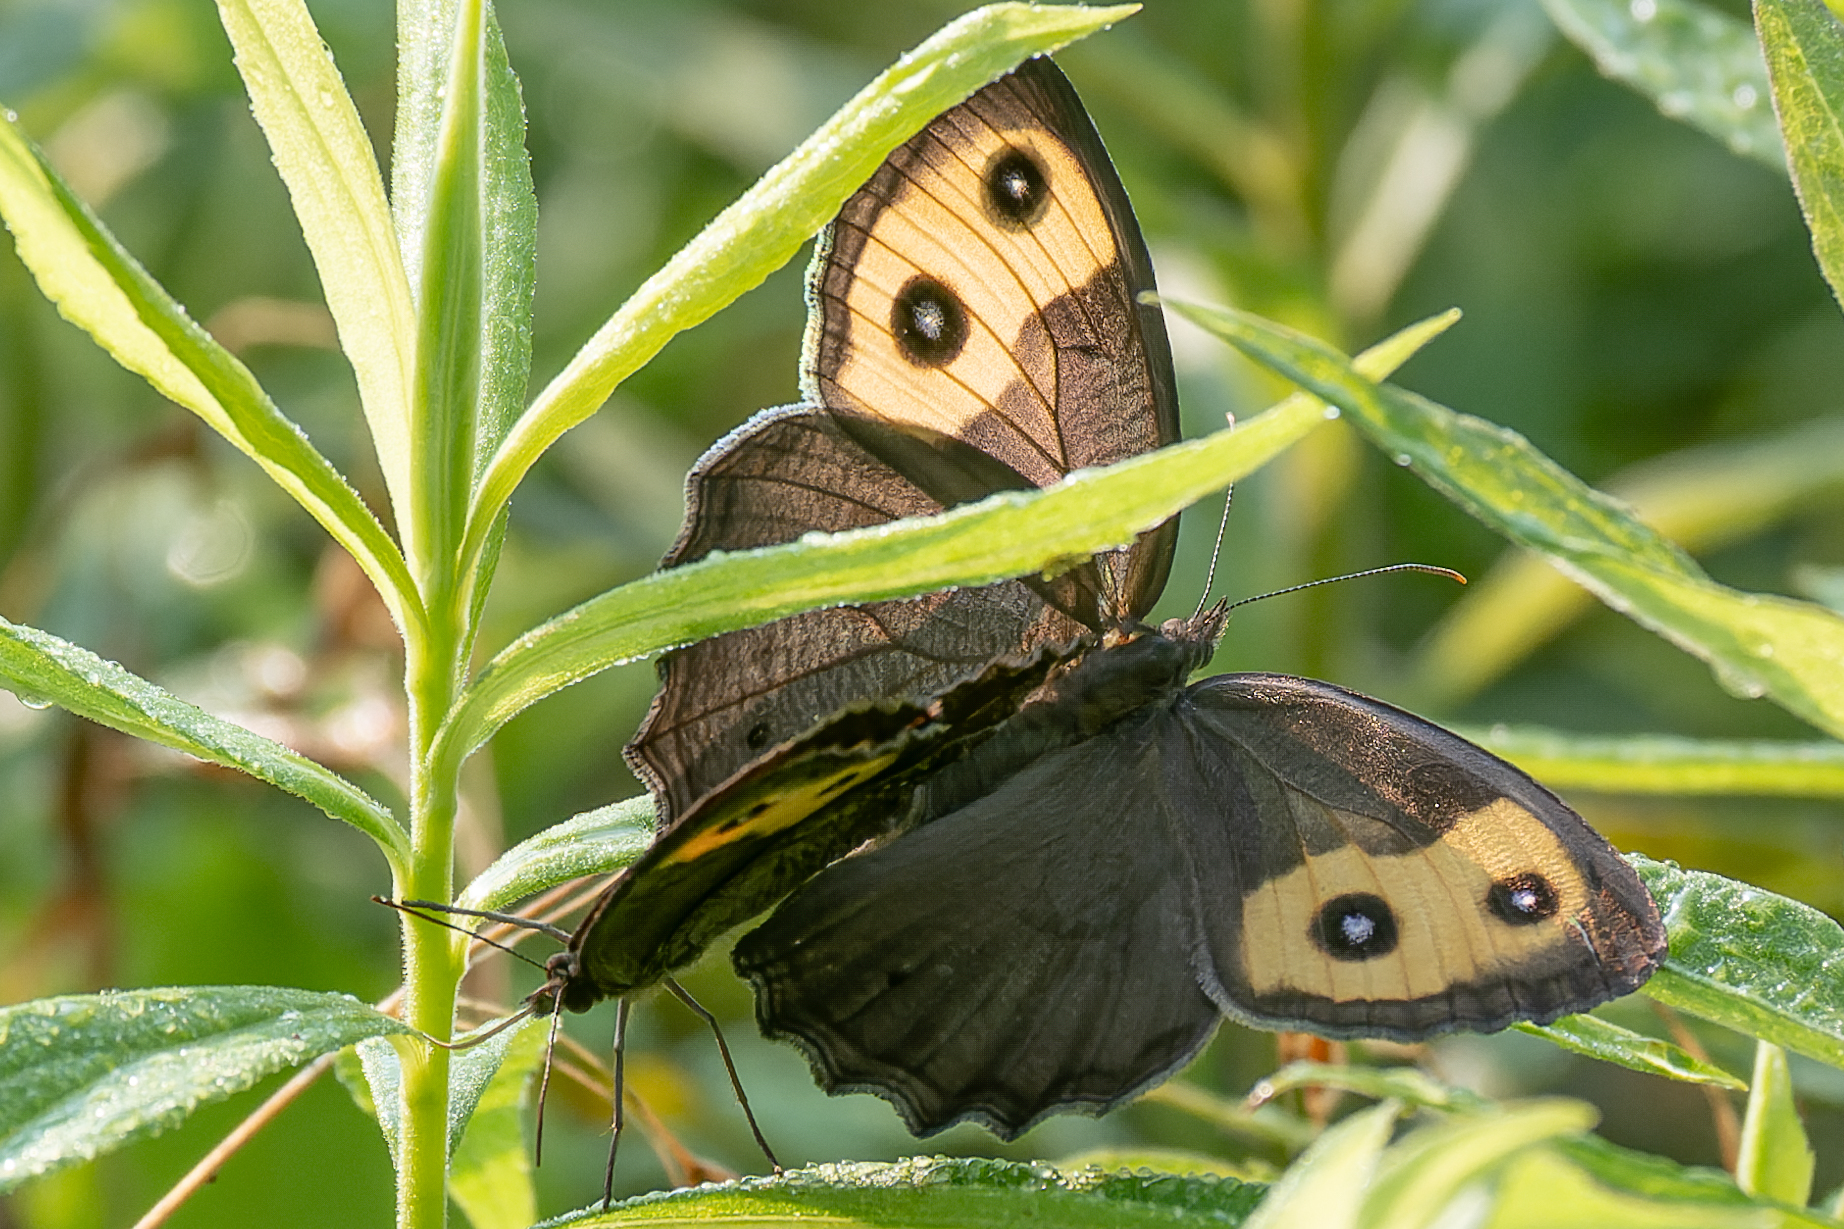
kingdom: Animalia
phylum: Arthropoda
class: Insecta
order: Lepidoptera
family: Nymphalidae
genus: Cercyonis
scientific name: Cercyonis pegala
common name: Common wood-nymph
